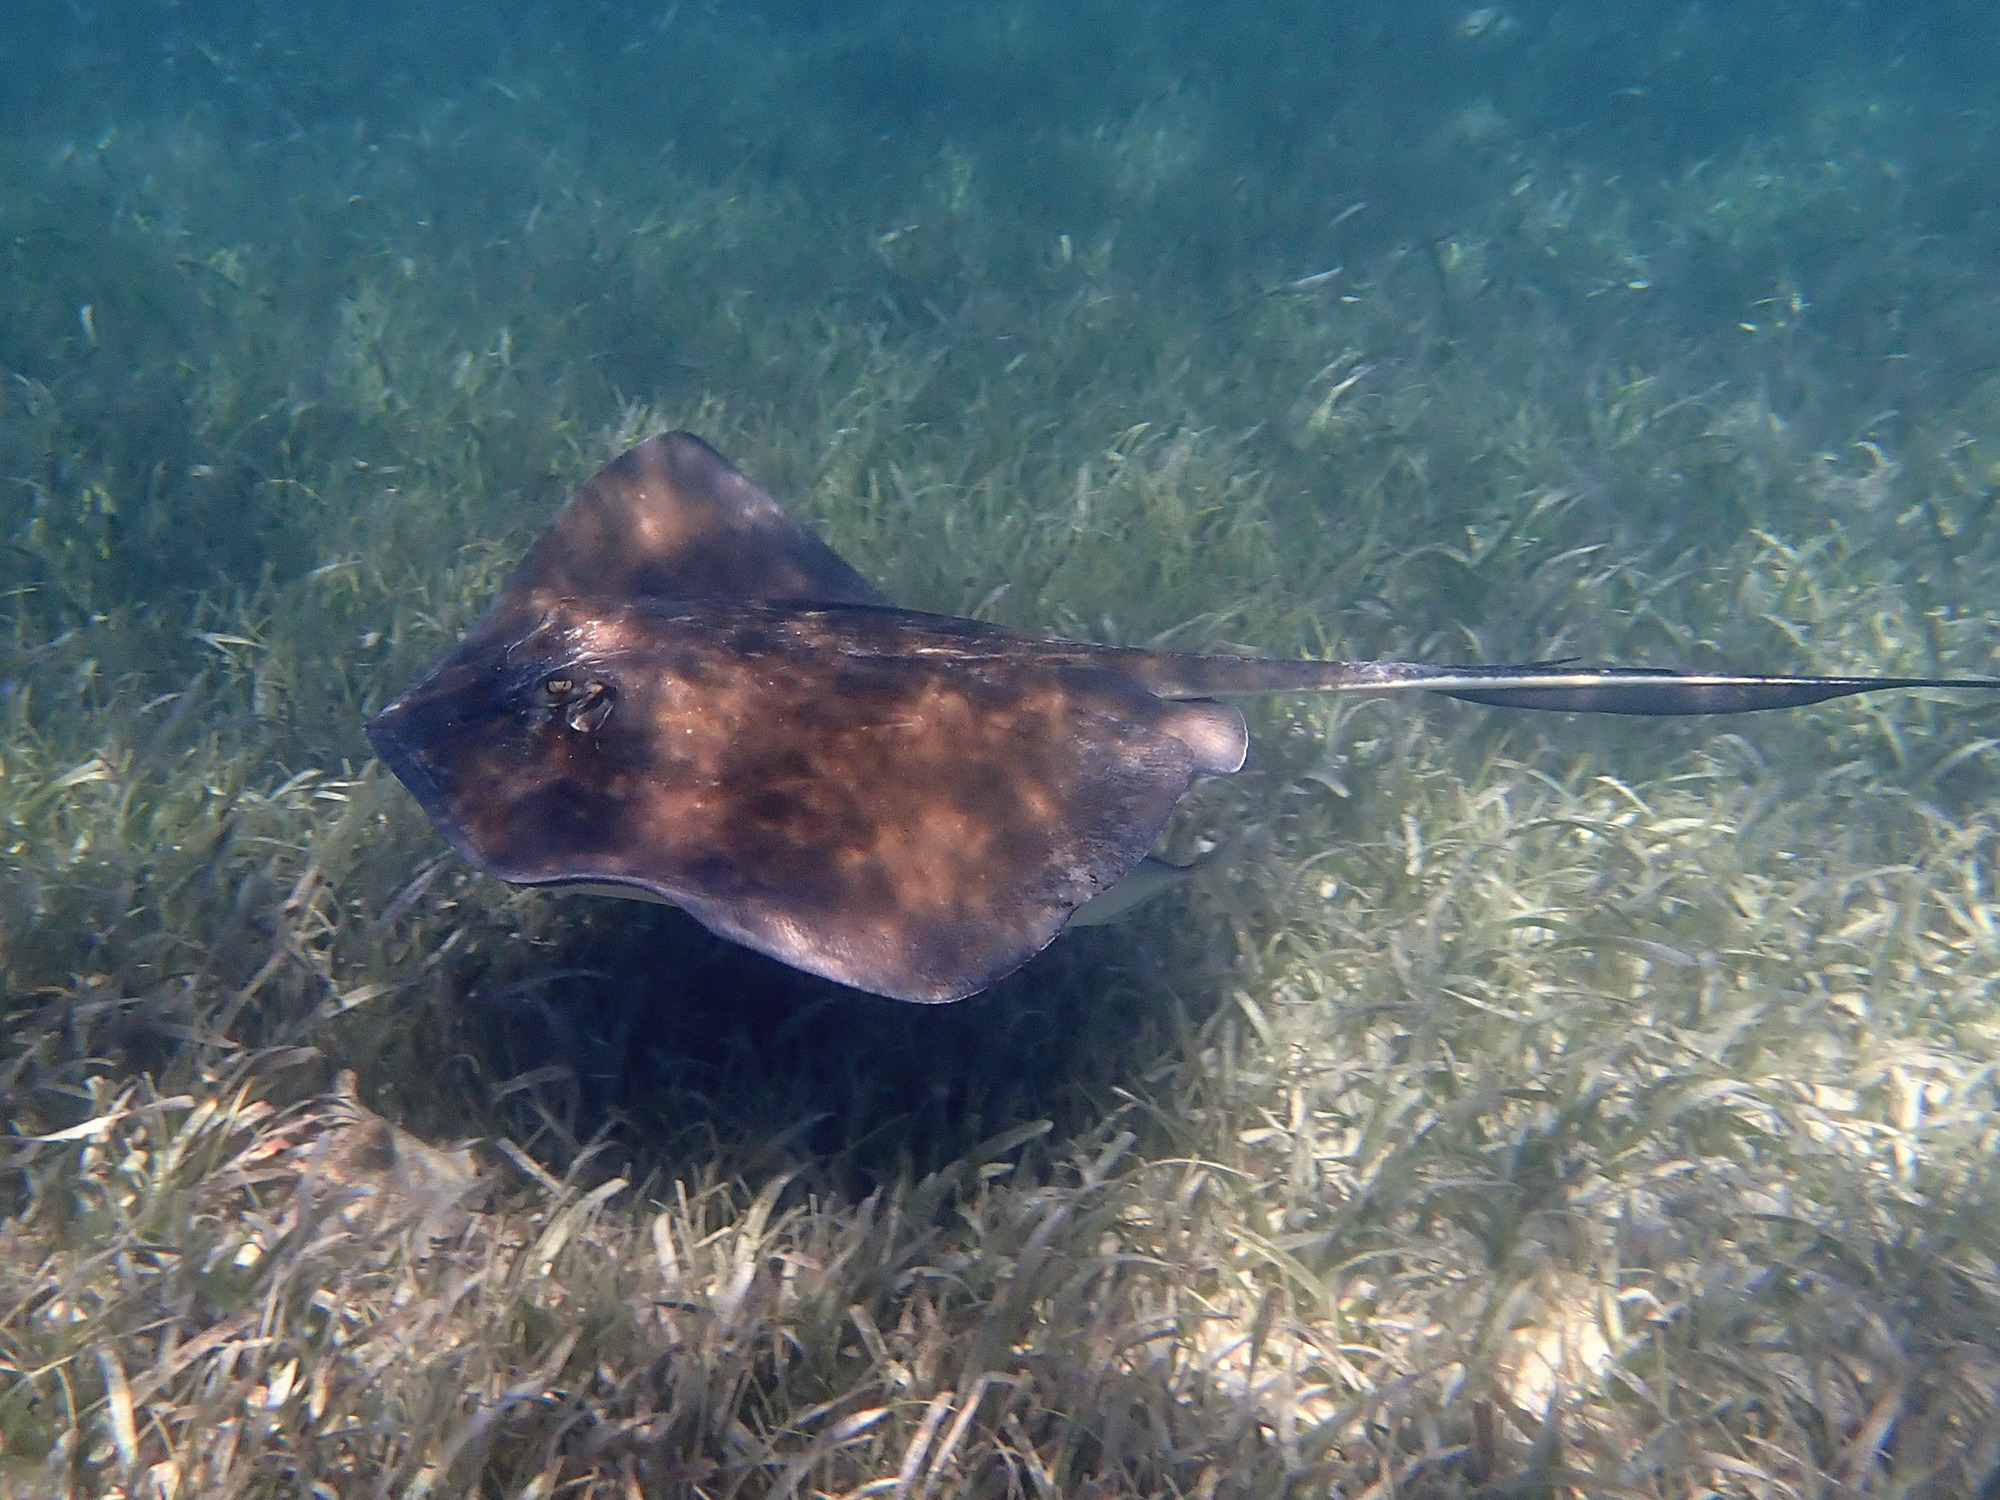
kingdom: Animalia
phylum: Chordata
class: Elasmobranchii
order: Myliobatiformes
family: Dasyatidae
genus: Hypanus
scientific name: Hypanus americanus
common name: Southern stingray
